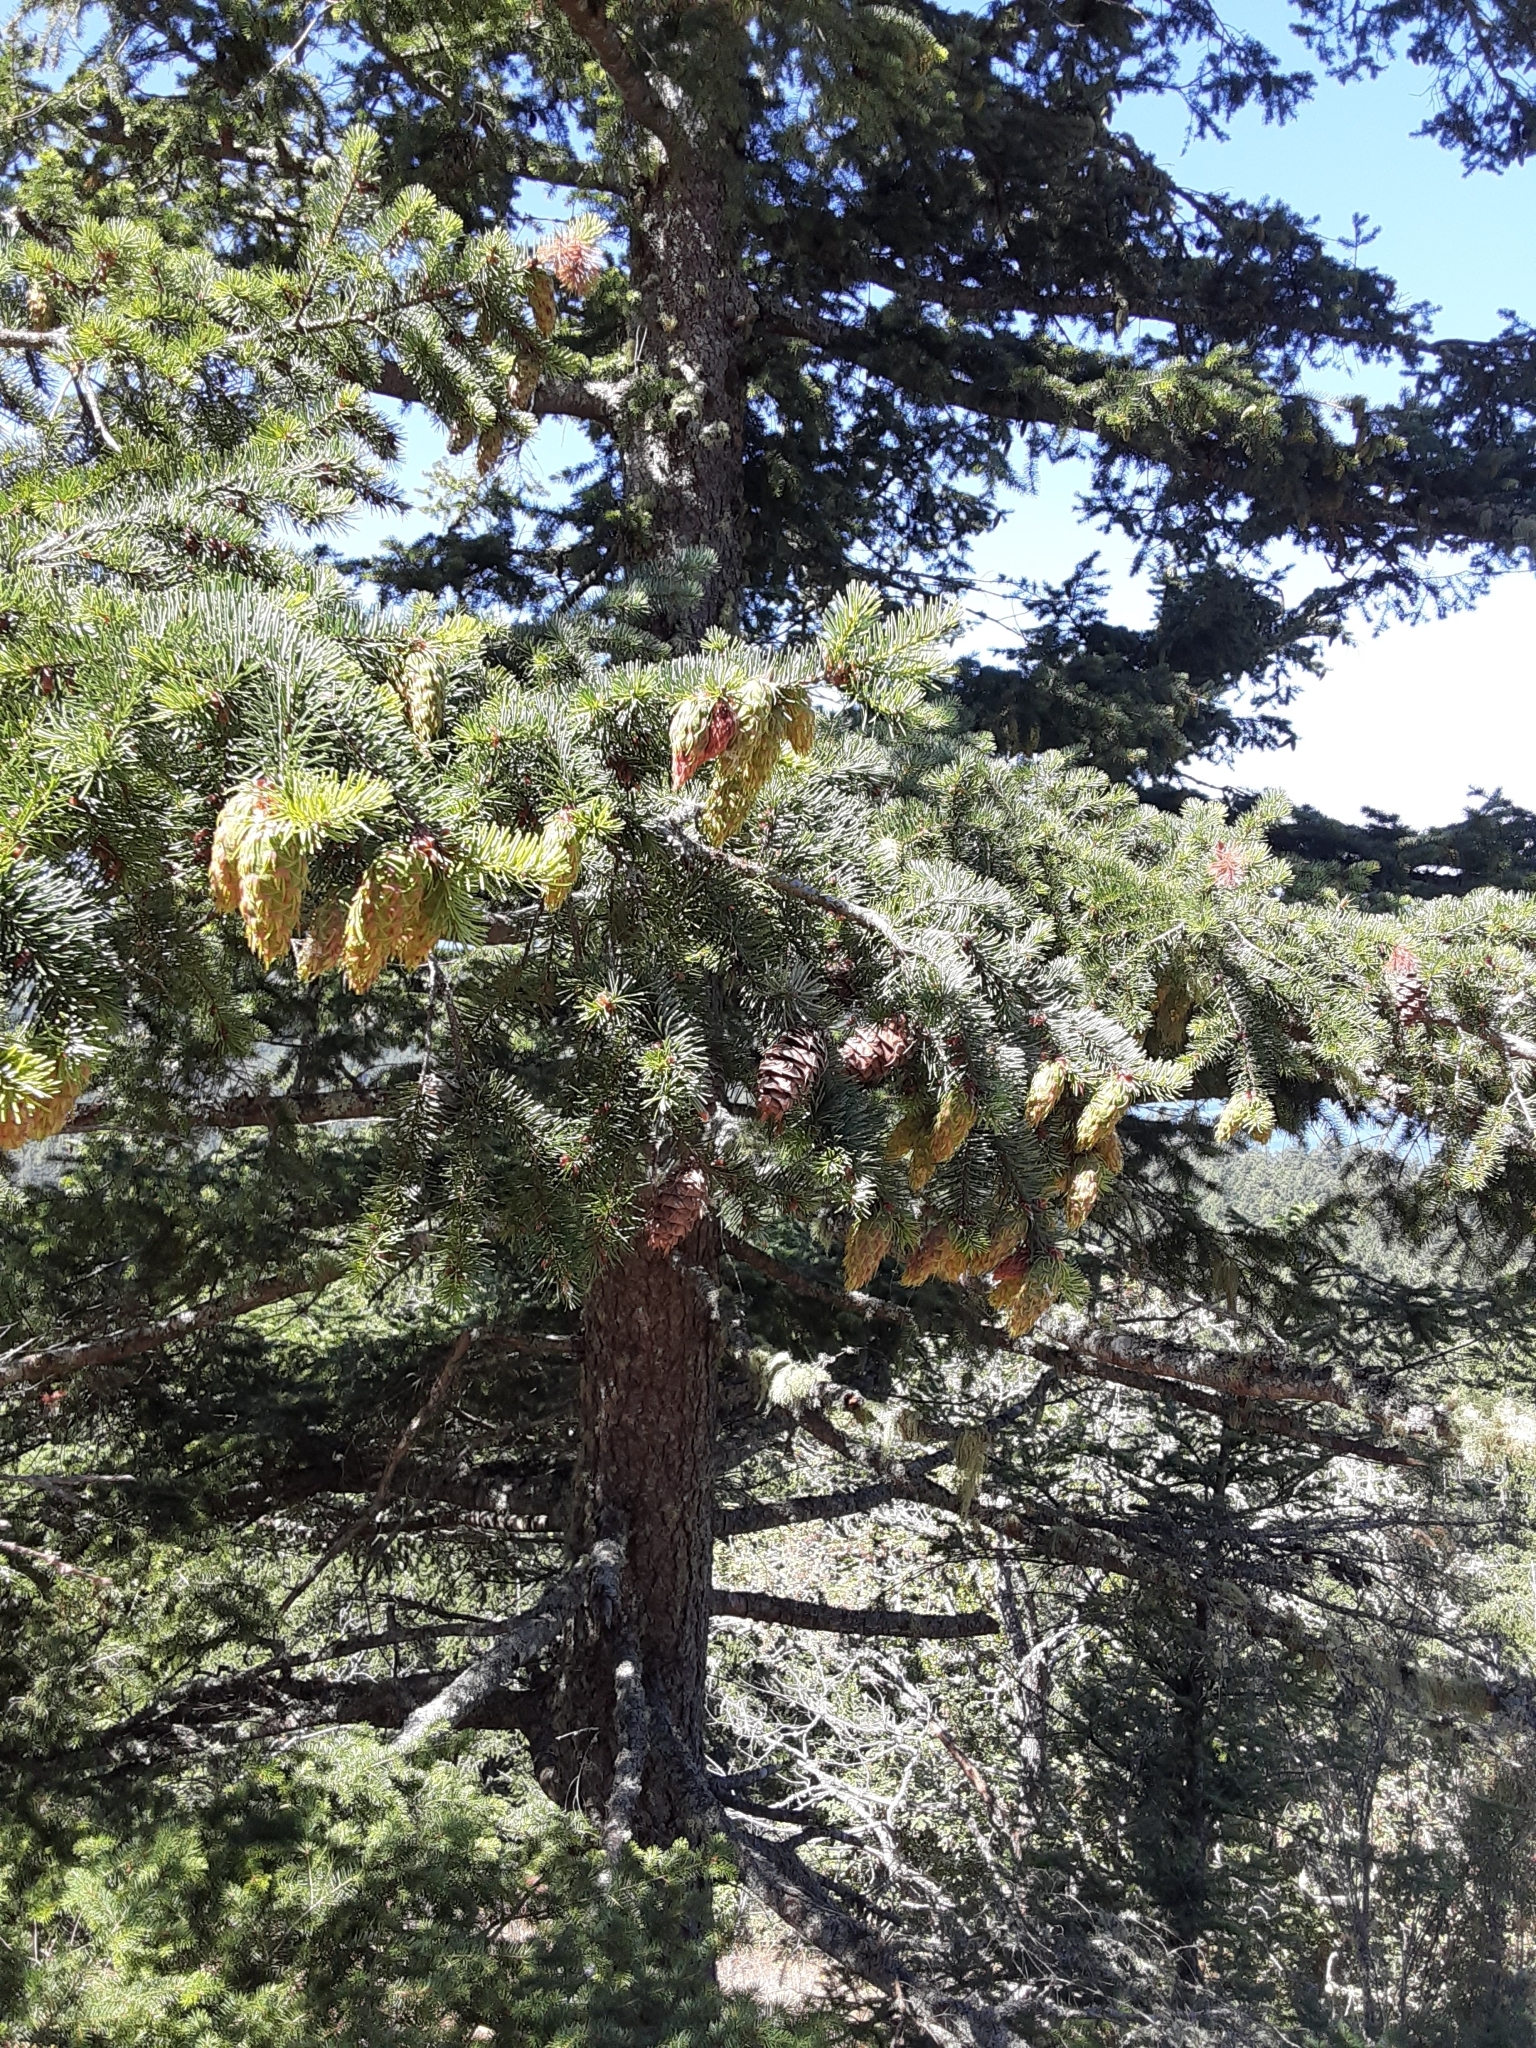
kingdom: Plantae
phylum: Tracheophyta
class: Pinopsida
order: Pinales
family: Pinaceae
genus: Pseudotsuga
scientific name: Pseudotsuga menziesii
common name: Douglas fir
